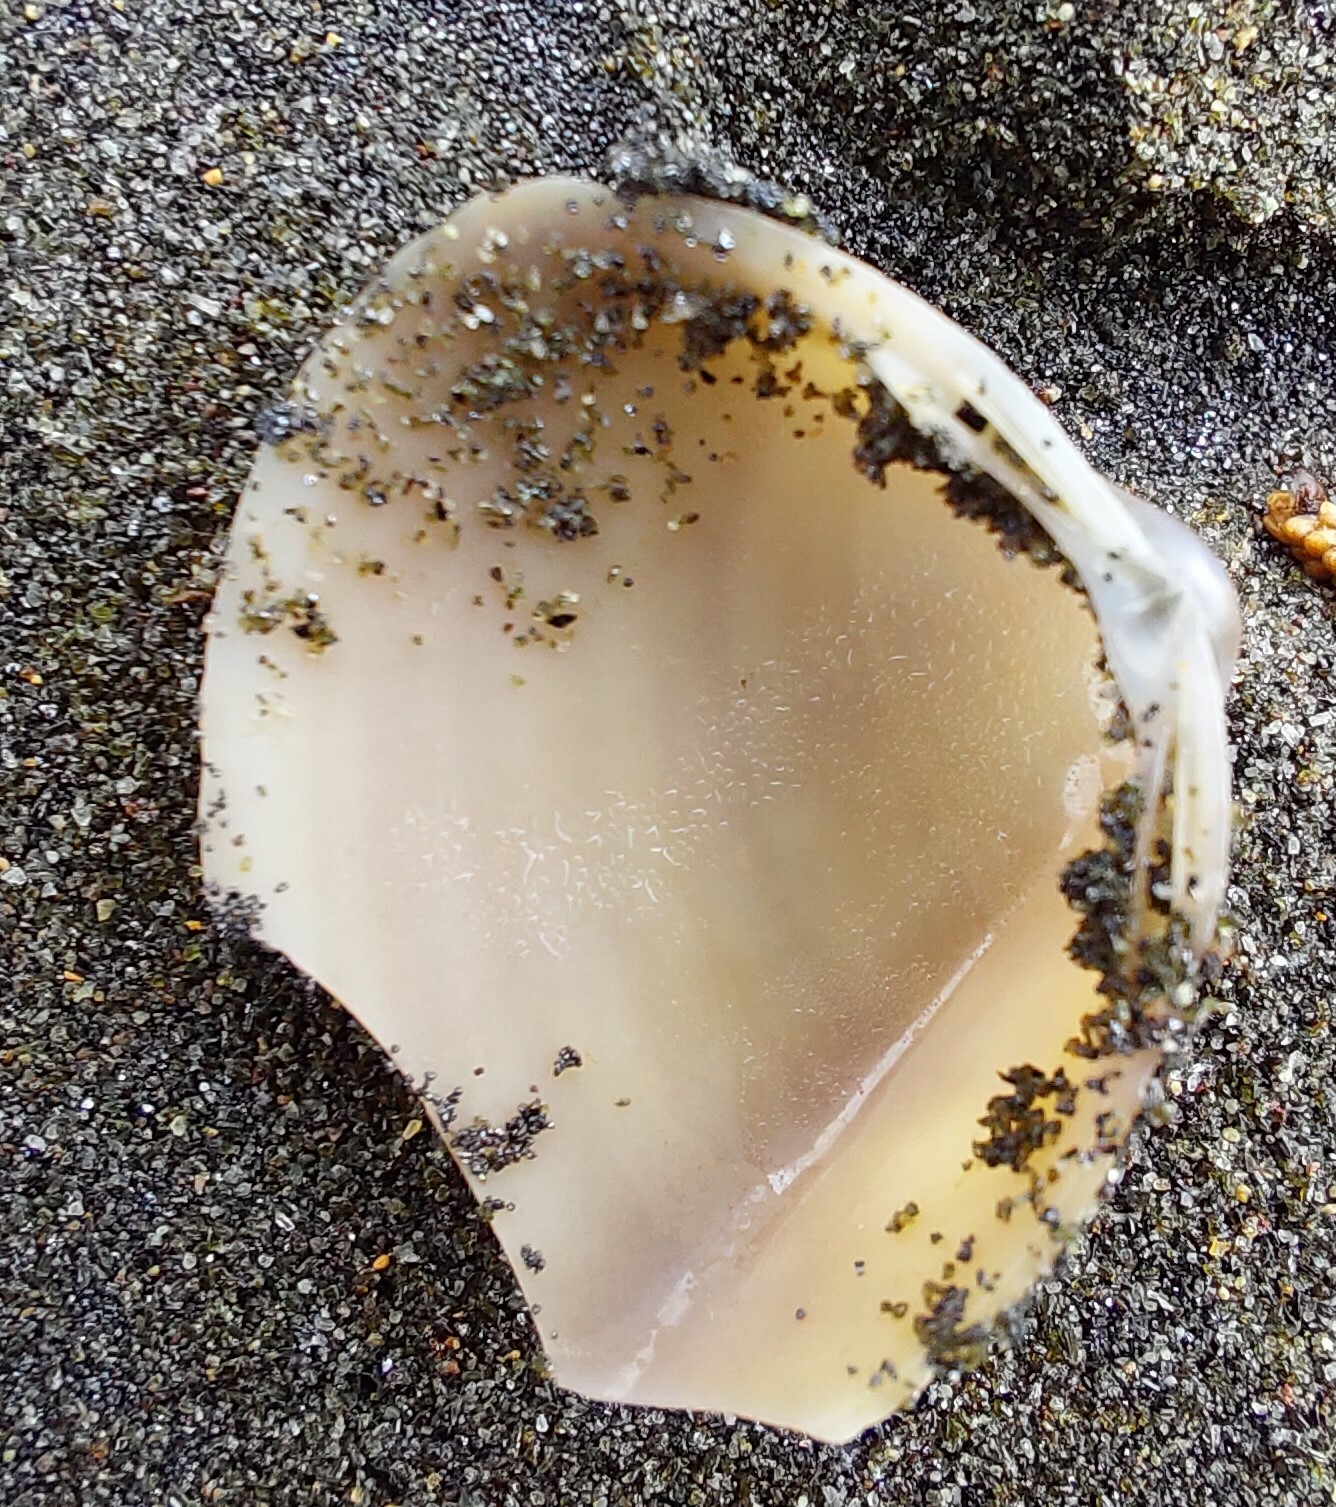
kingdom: Animalia
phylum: Mollusca
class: Bivalvia
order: Venerida
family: Mactridae
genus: Crassula
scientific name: Crassula aequilatera
